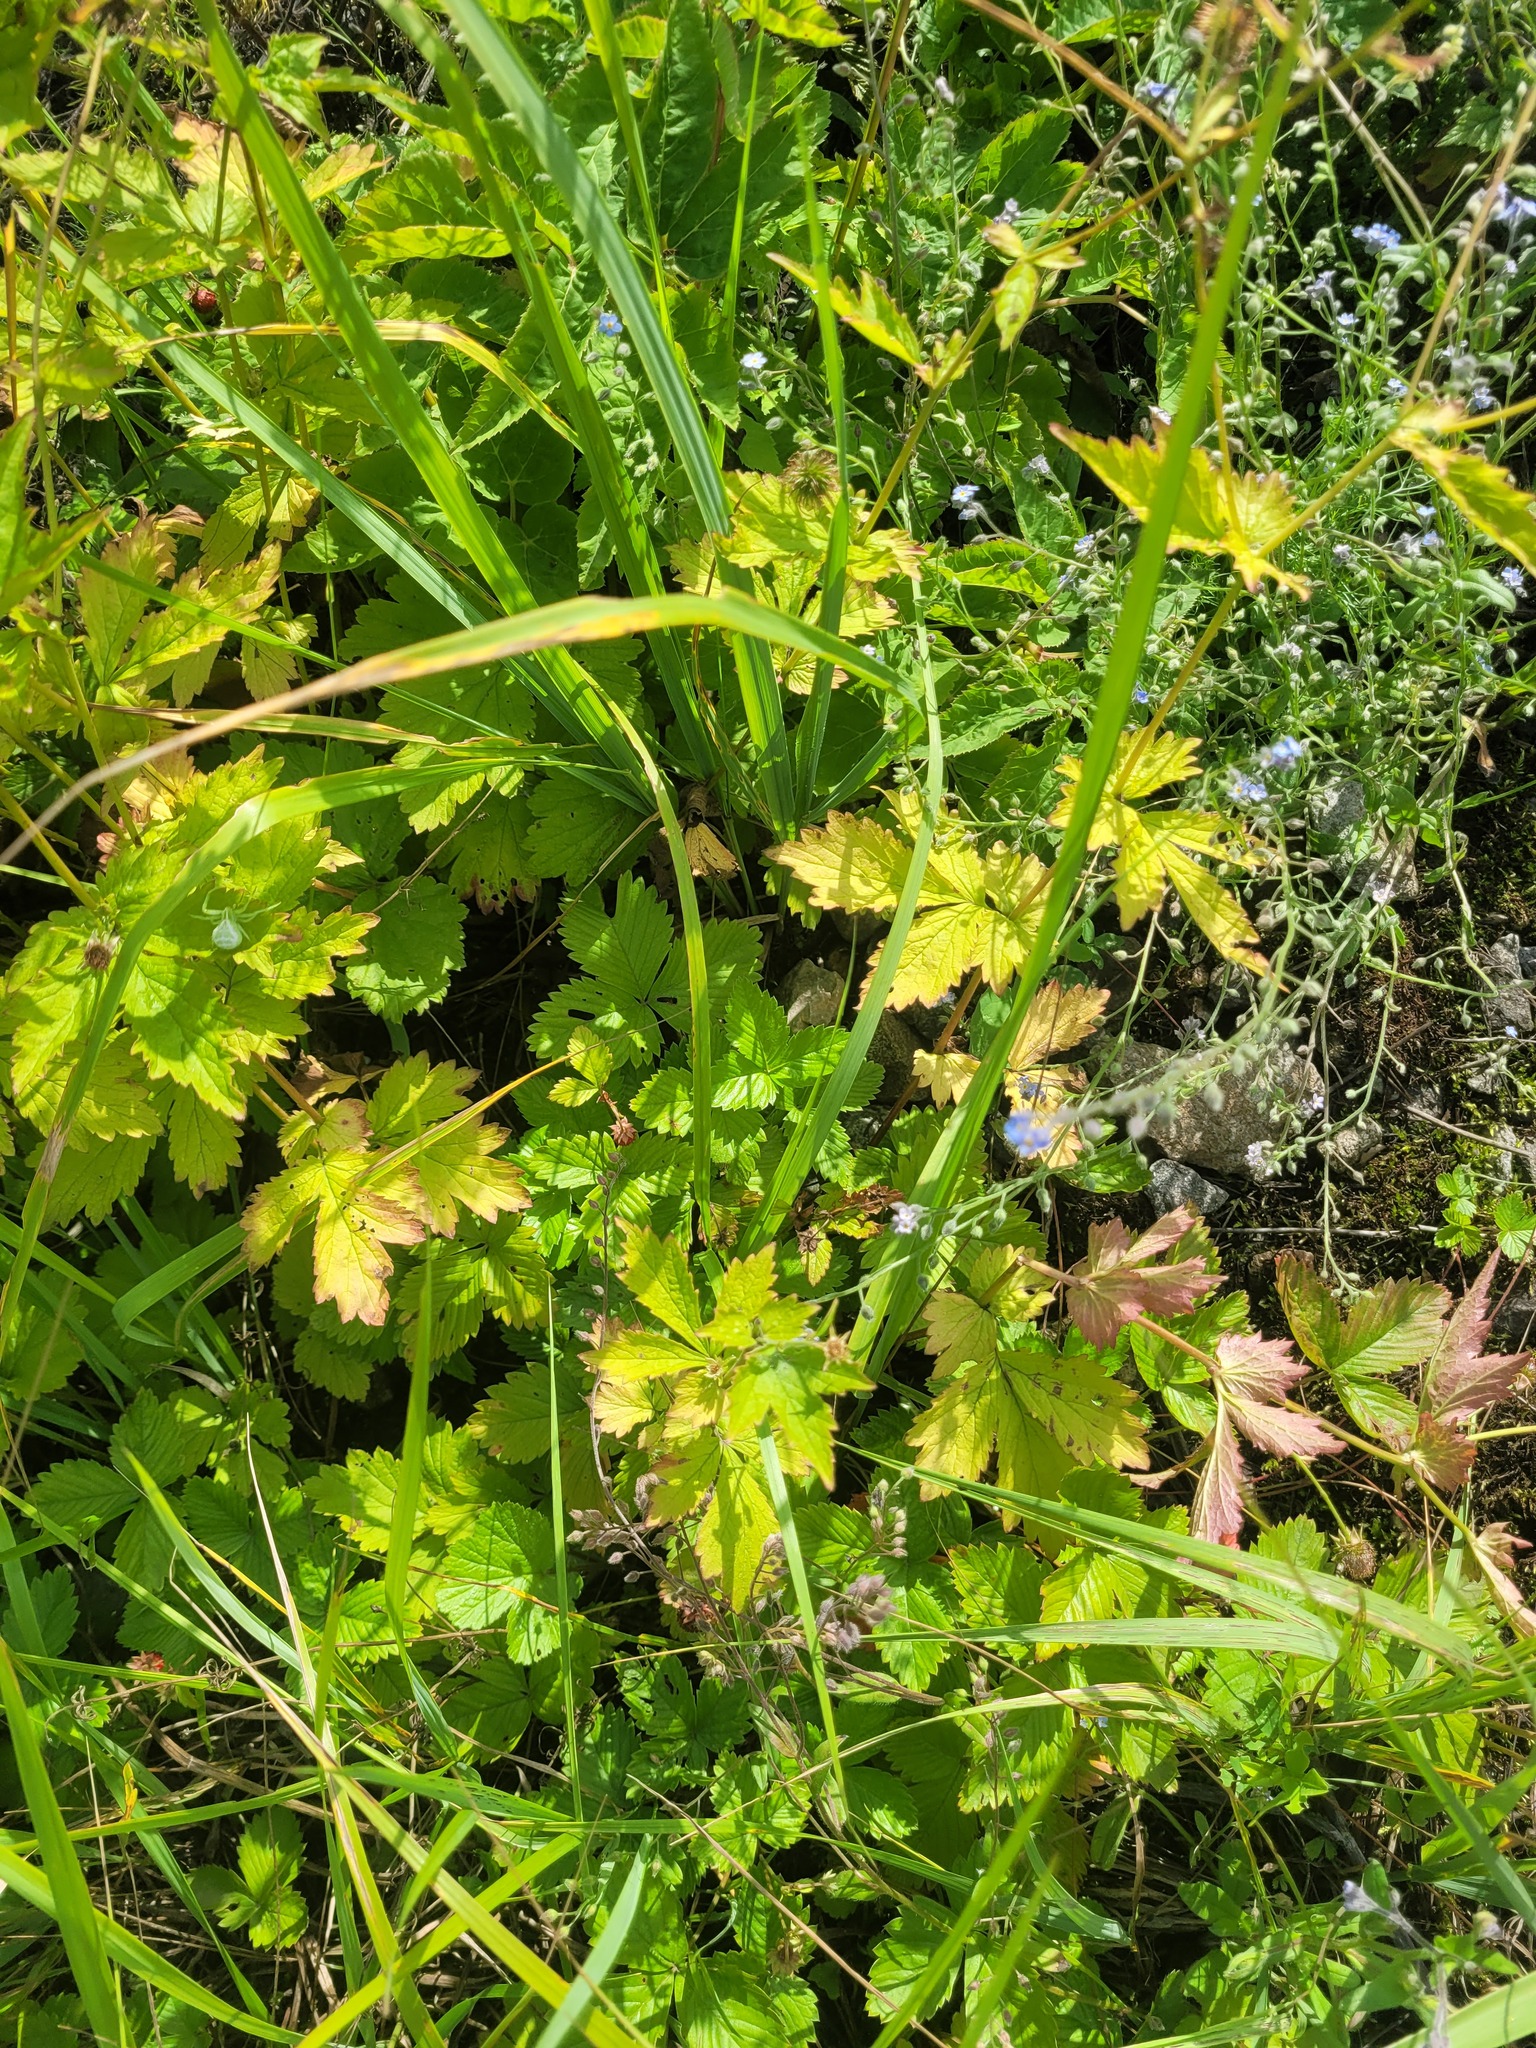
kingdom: Plantae
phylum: Tracheophyta
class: Magnoliopsida
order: Rosales
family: Rosaceae
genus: Fragaria
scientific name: Fragaria vesca
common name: Wild strawberry
